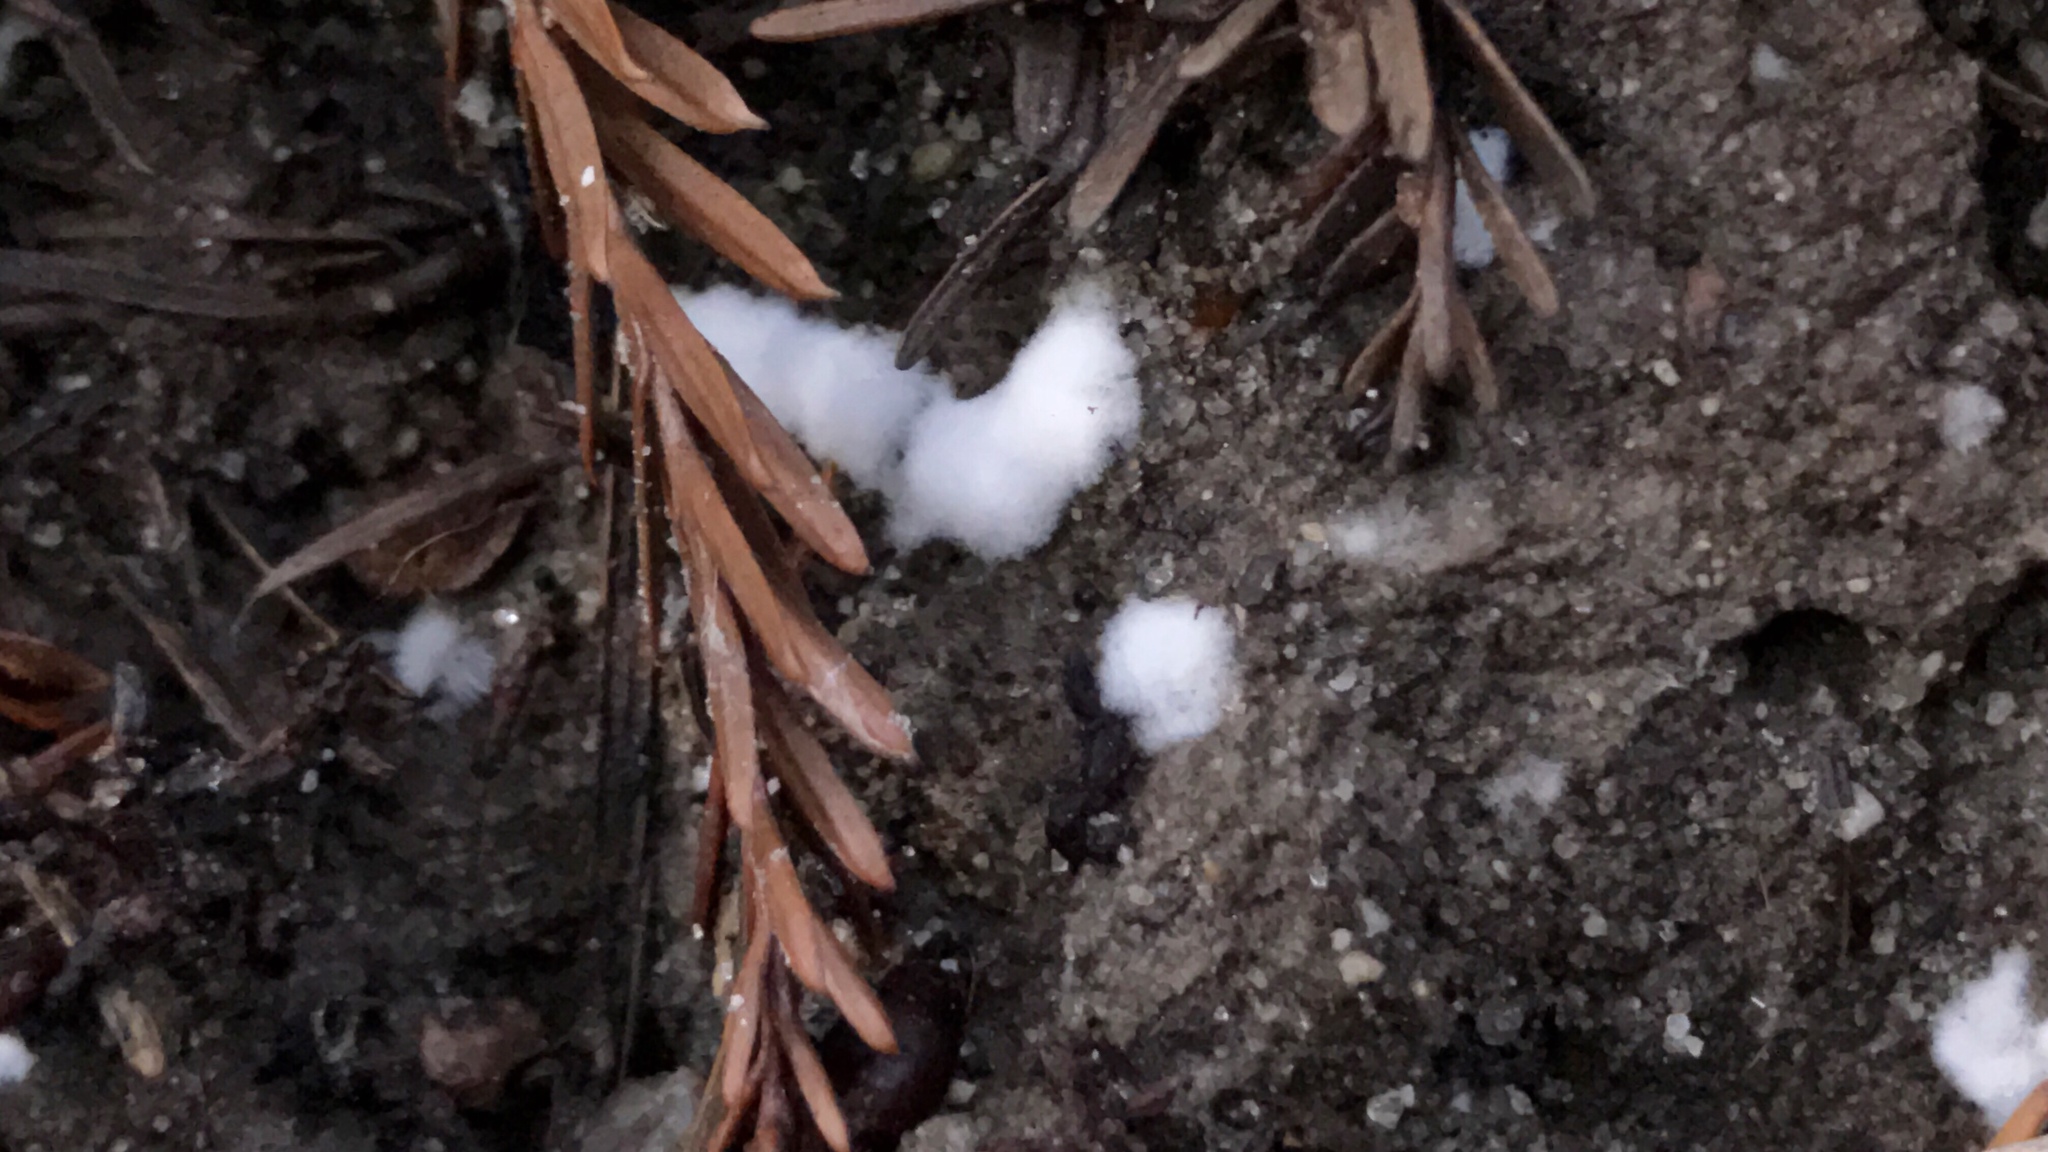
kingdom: Fungi
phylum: Ascomycota
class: Pezizomycetes
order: Pezizales
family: Pezizaceae
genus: Pachyphlodes
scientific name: Pachyphlodes carnea
